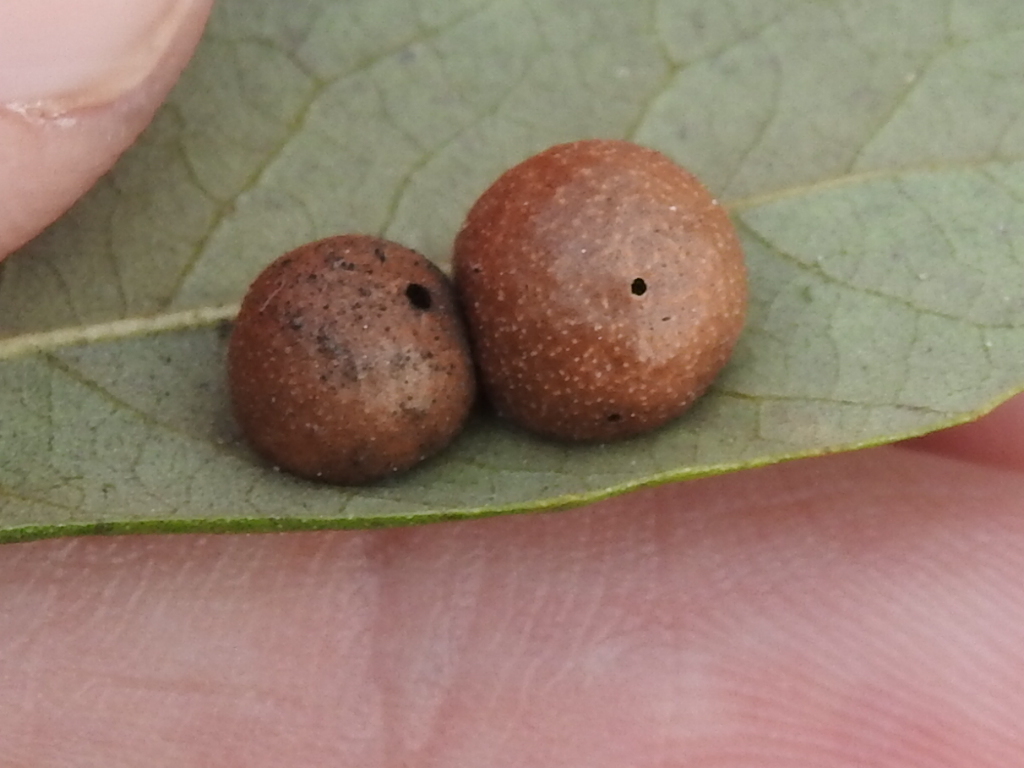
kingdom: Animalia
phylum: Arthropoda
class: Insecta
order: Hymenoptera
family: Cynipidae
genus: Belonocnema
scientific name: Belonocnema kinseyi
